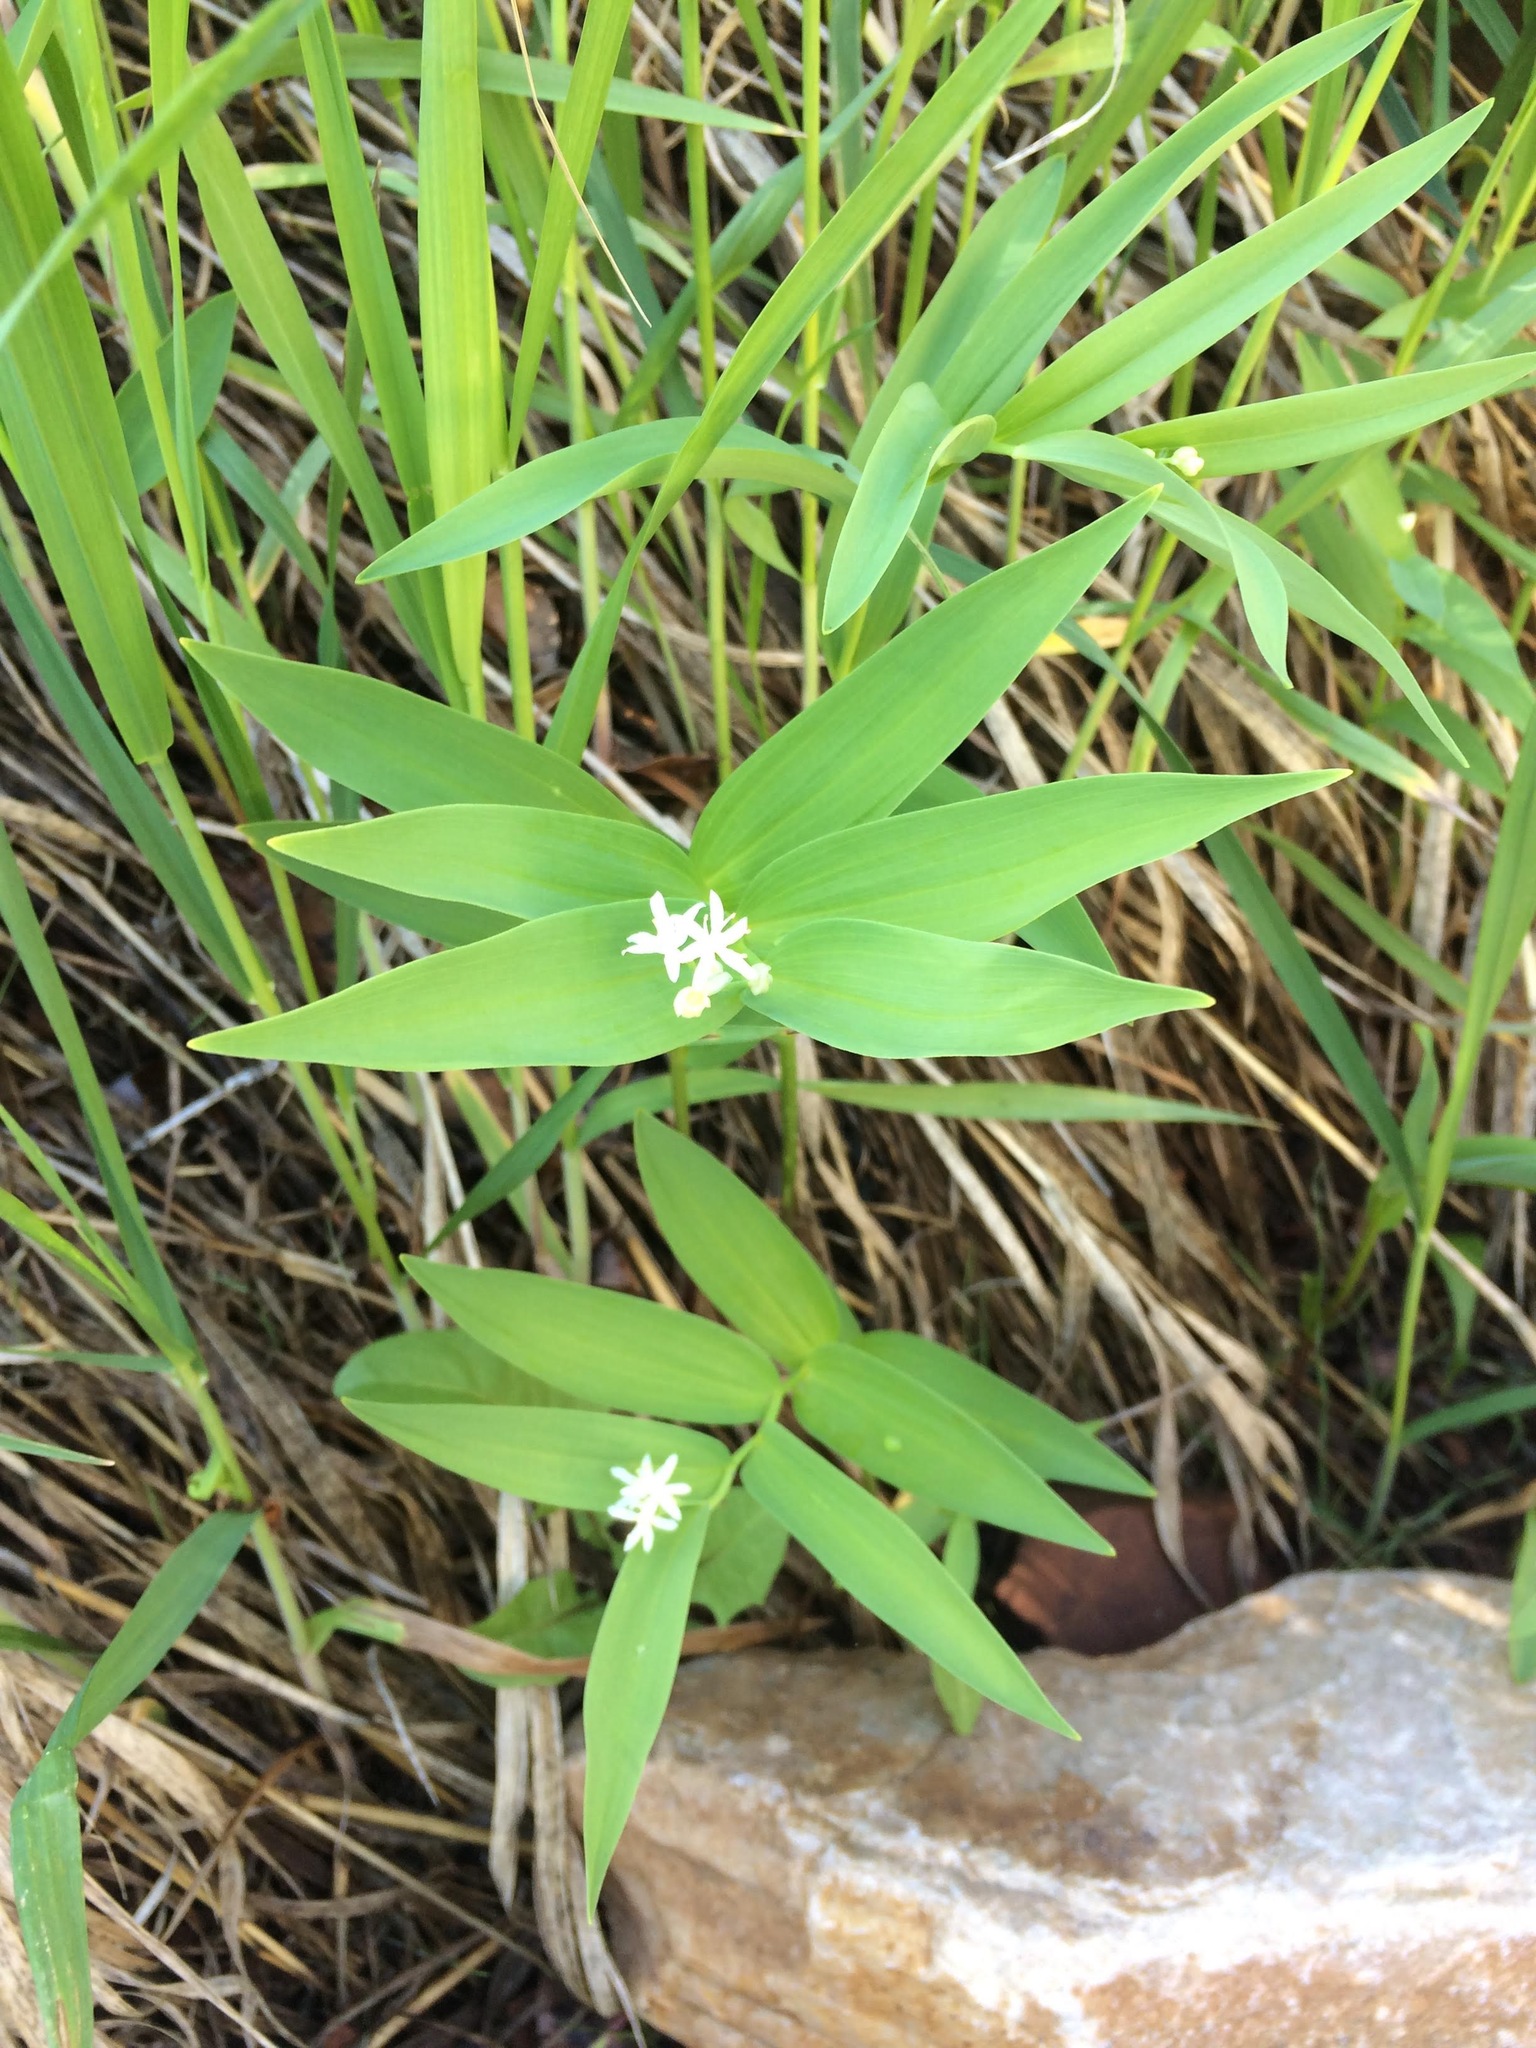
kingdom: Plantae
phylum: Tracheophyta
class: Liliopsida
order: Asparagales
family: Asparagaceae
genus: Maianthemum
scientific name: Maianthemum stellatum
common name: Little false solomon's seal
